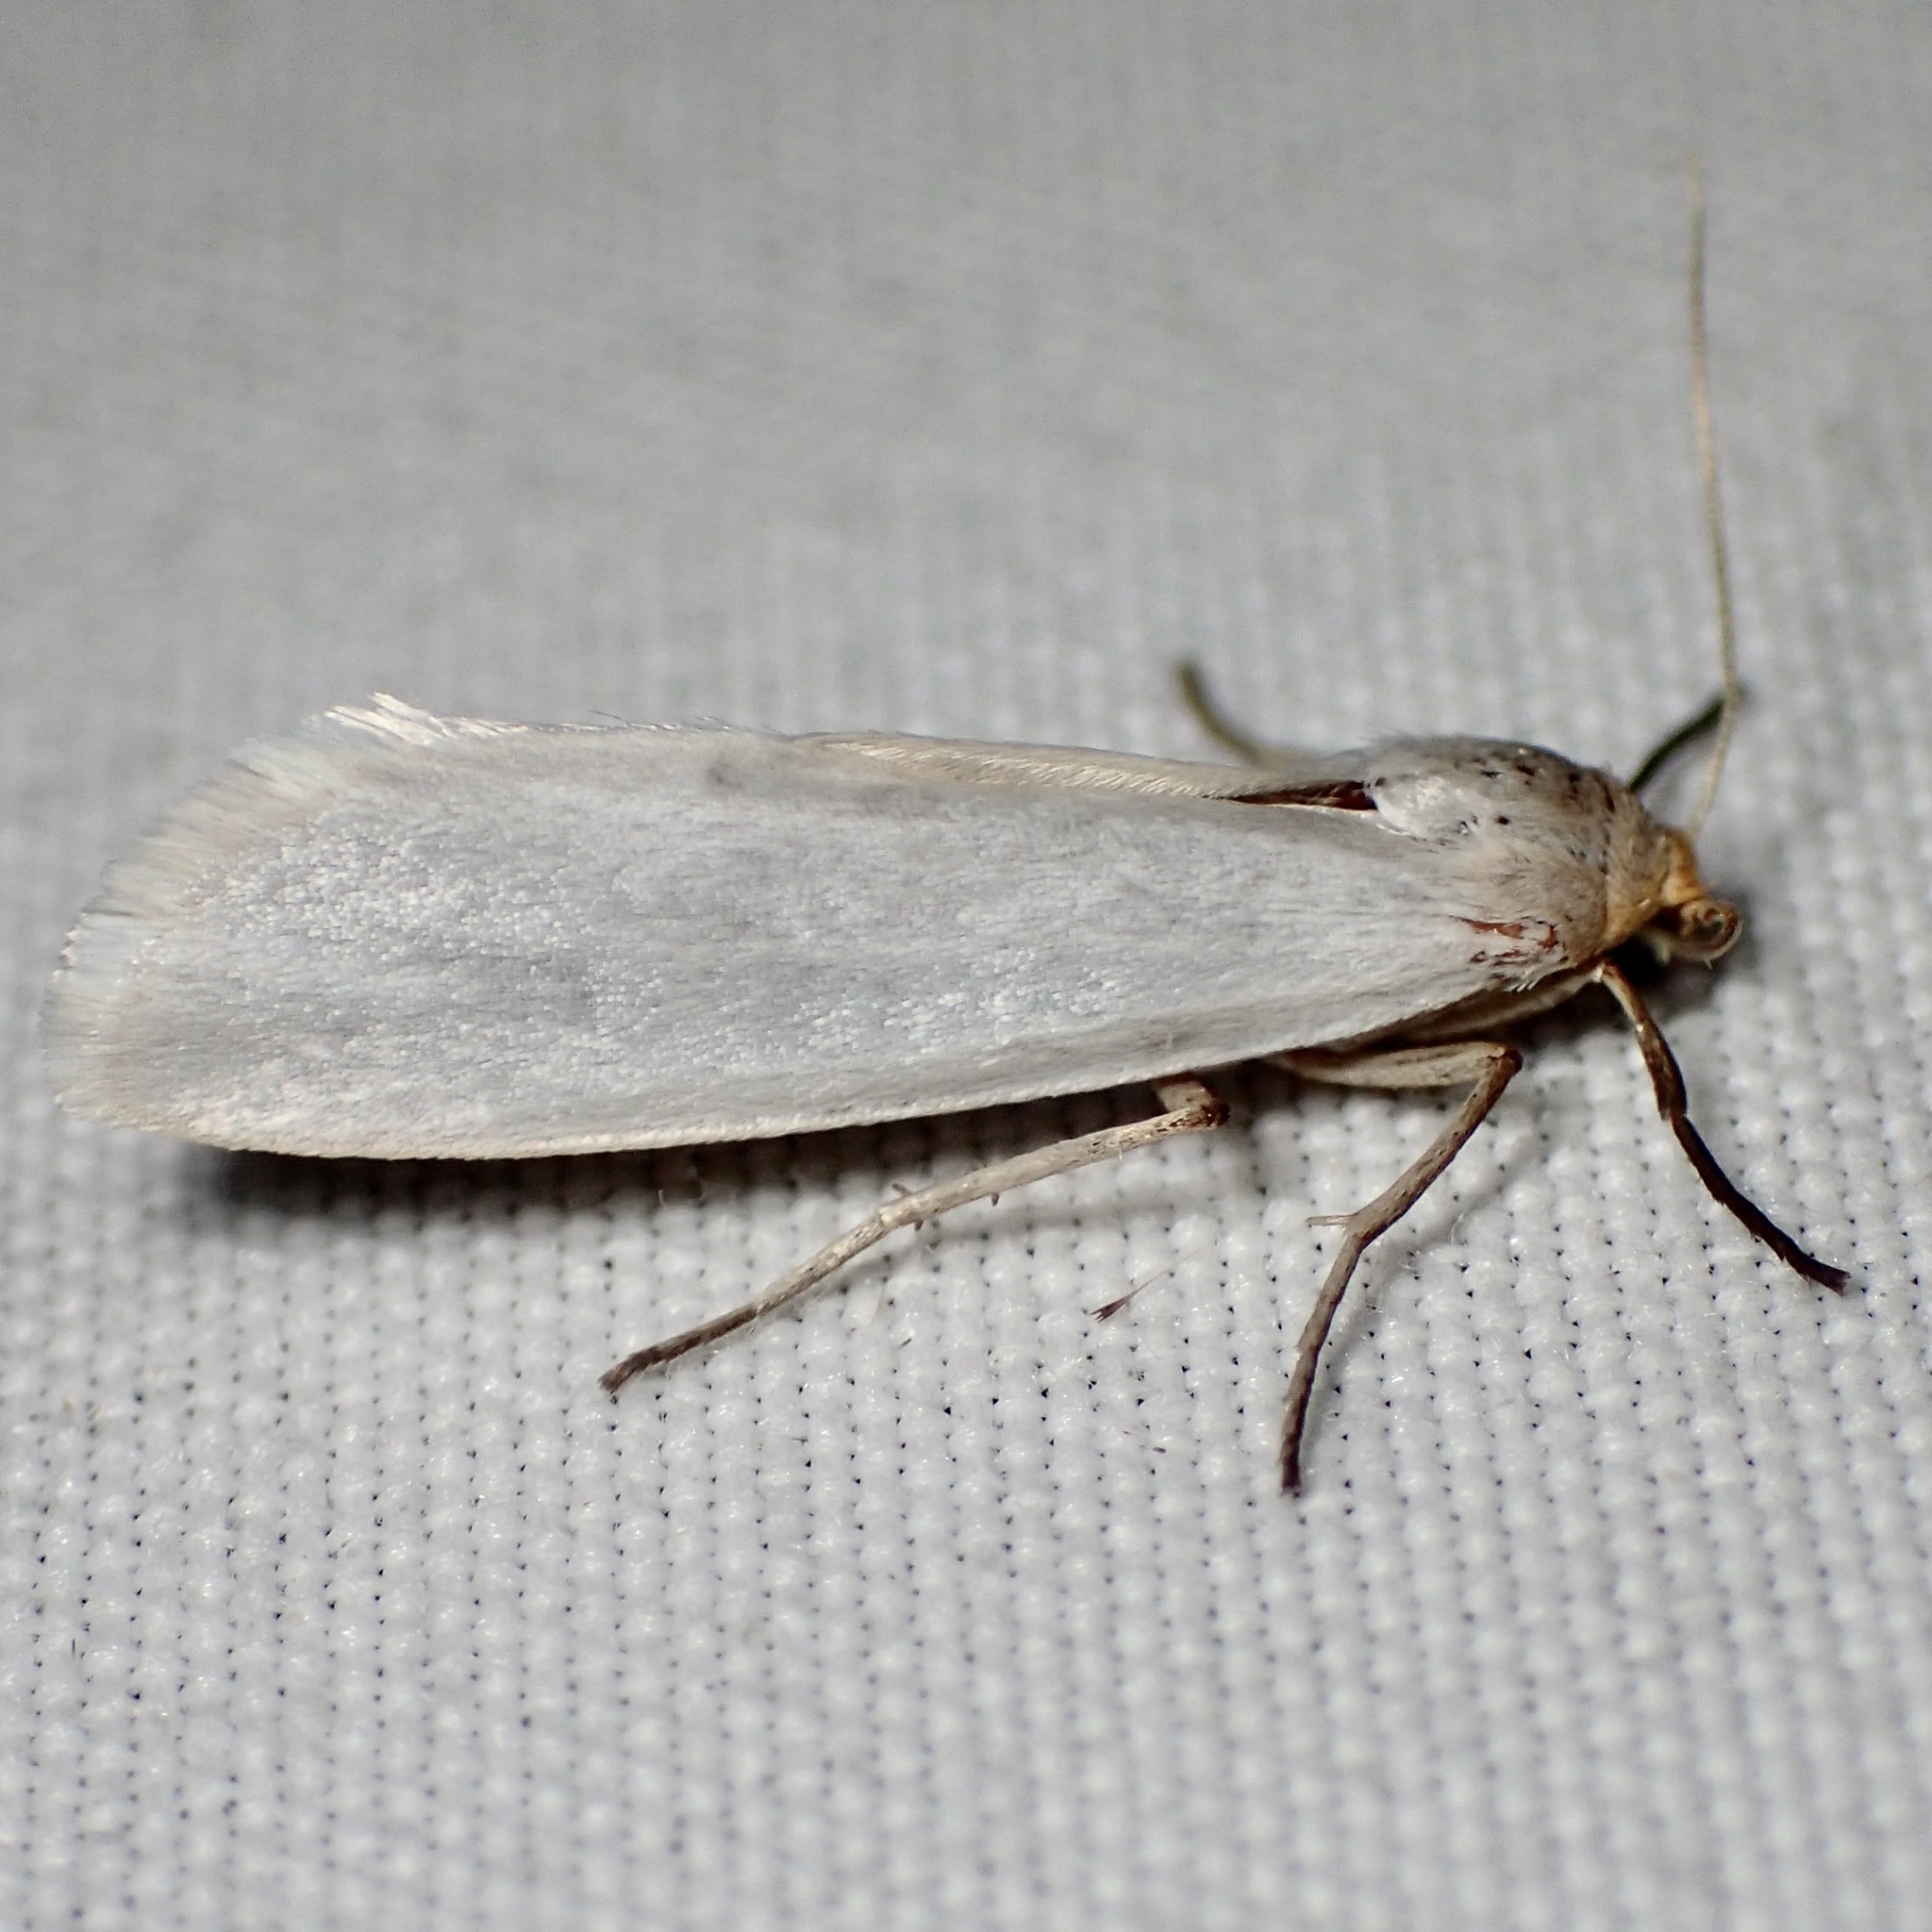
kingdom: Animalia
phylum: Arthropoda
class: Insecta
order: Lepidoptera
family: Erebidae
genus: Crambidia
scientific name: Crambidia cephalica
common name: Yellow-headed lichen moth
